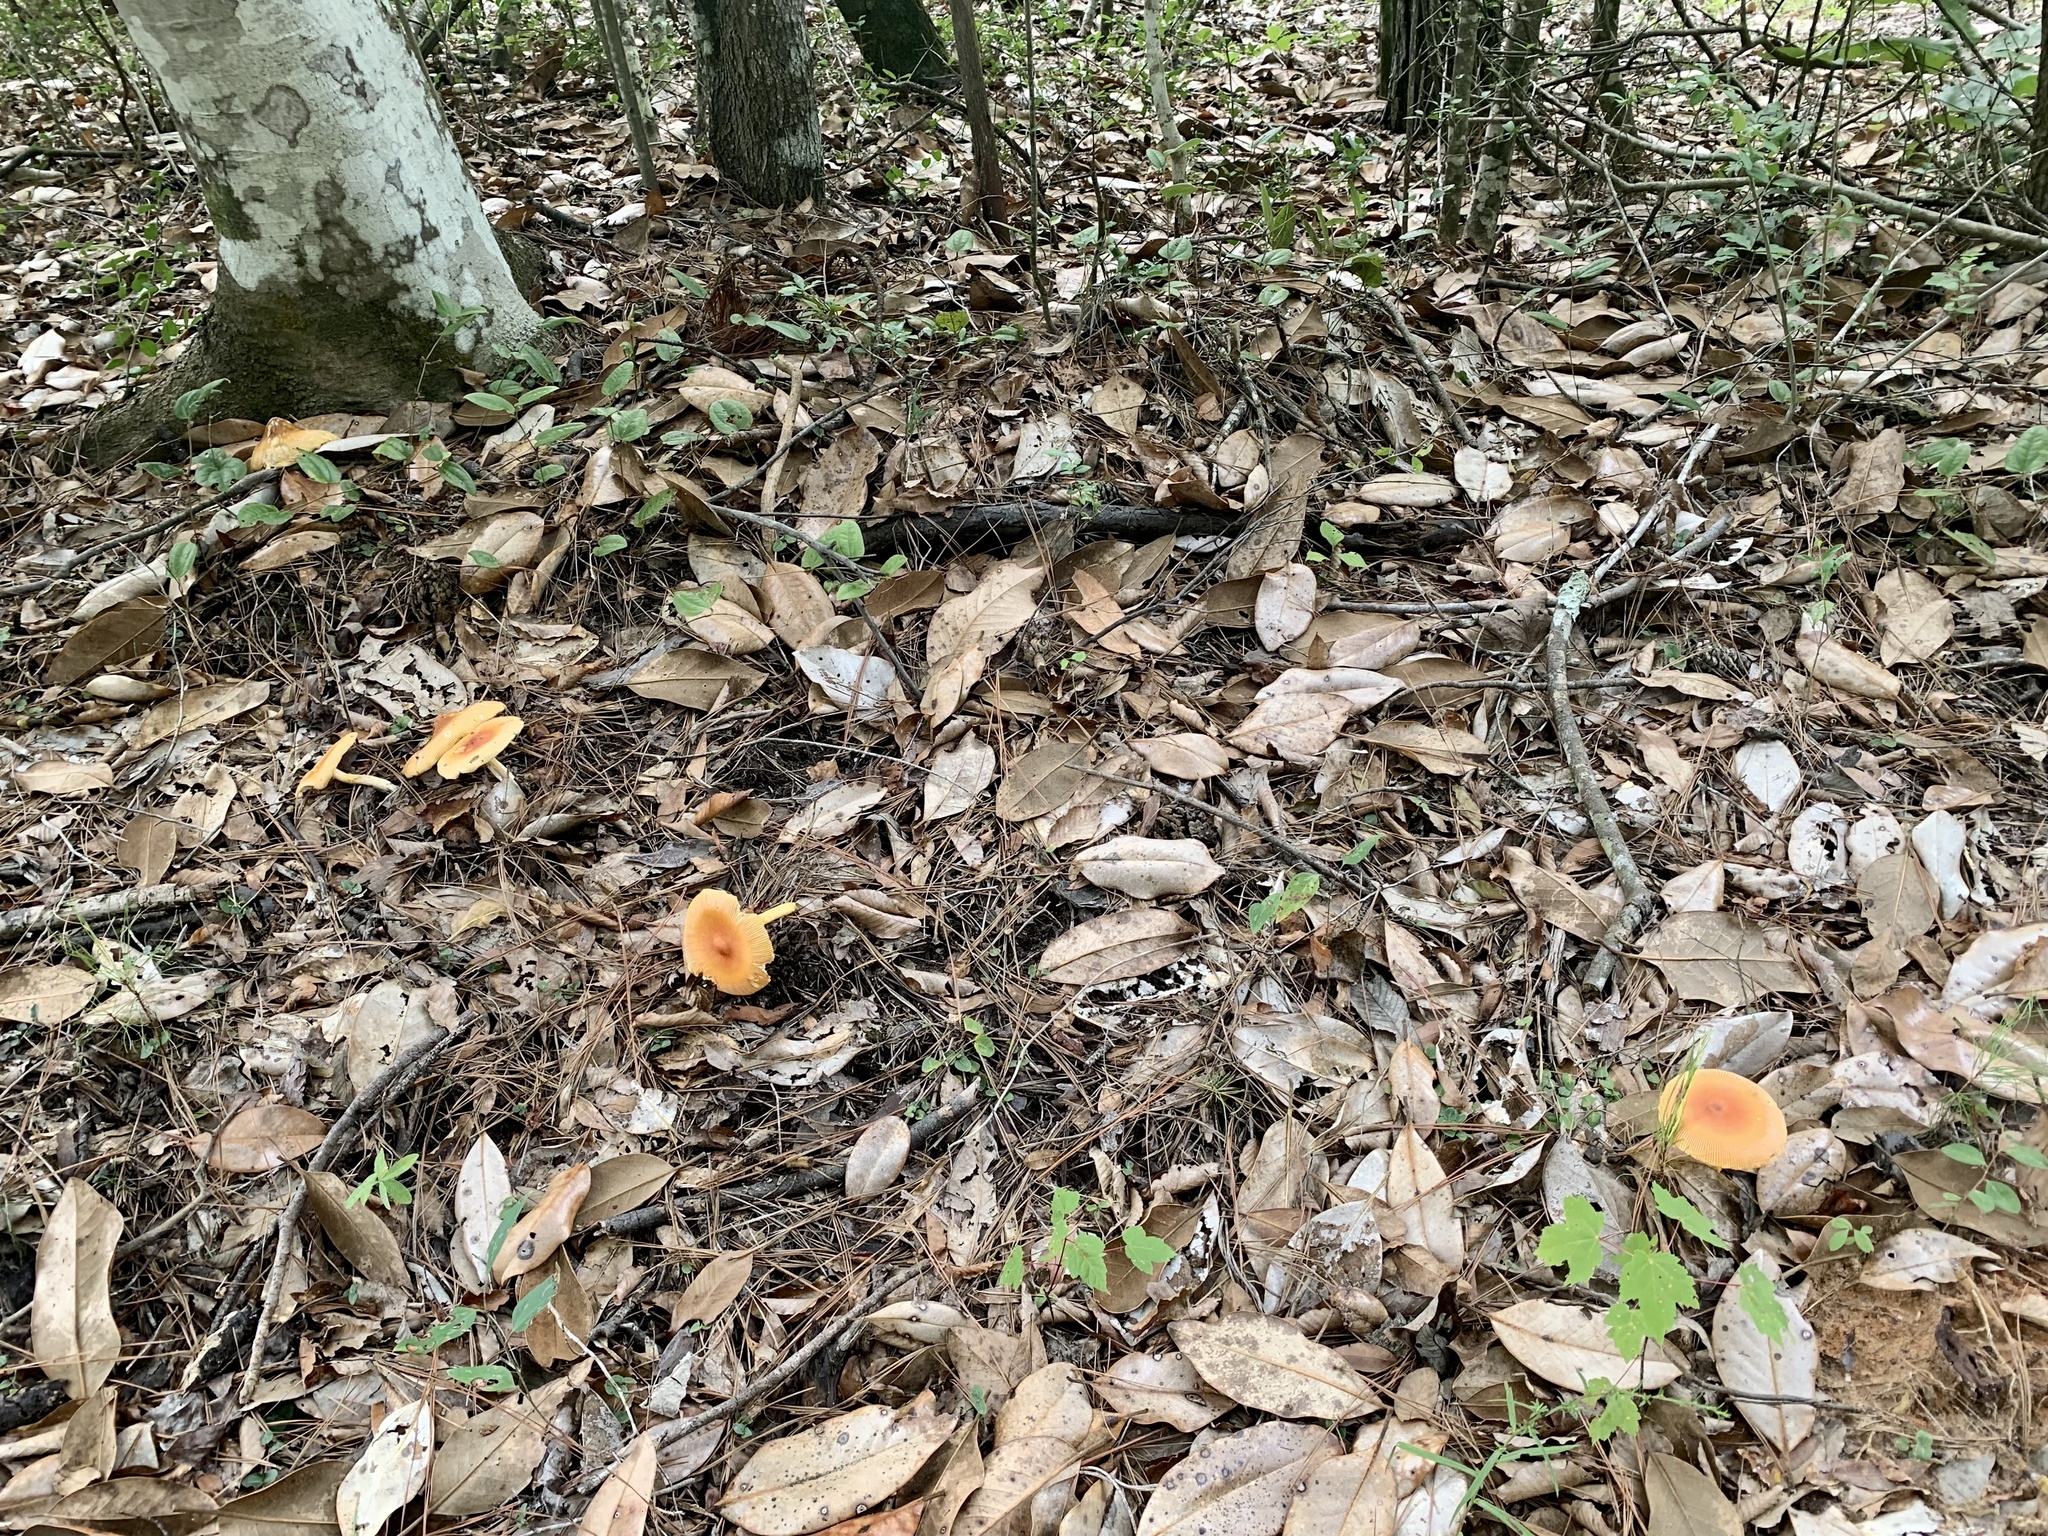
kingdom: Fungi
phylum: Basidiomycota
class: Agaricomycetes
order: Agaricales
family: Amanitaceae
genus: Amanita
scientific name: Amanita jacksonii
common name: Jackson's slender caesar
